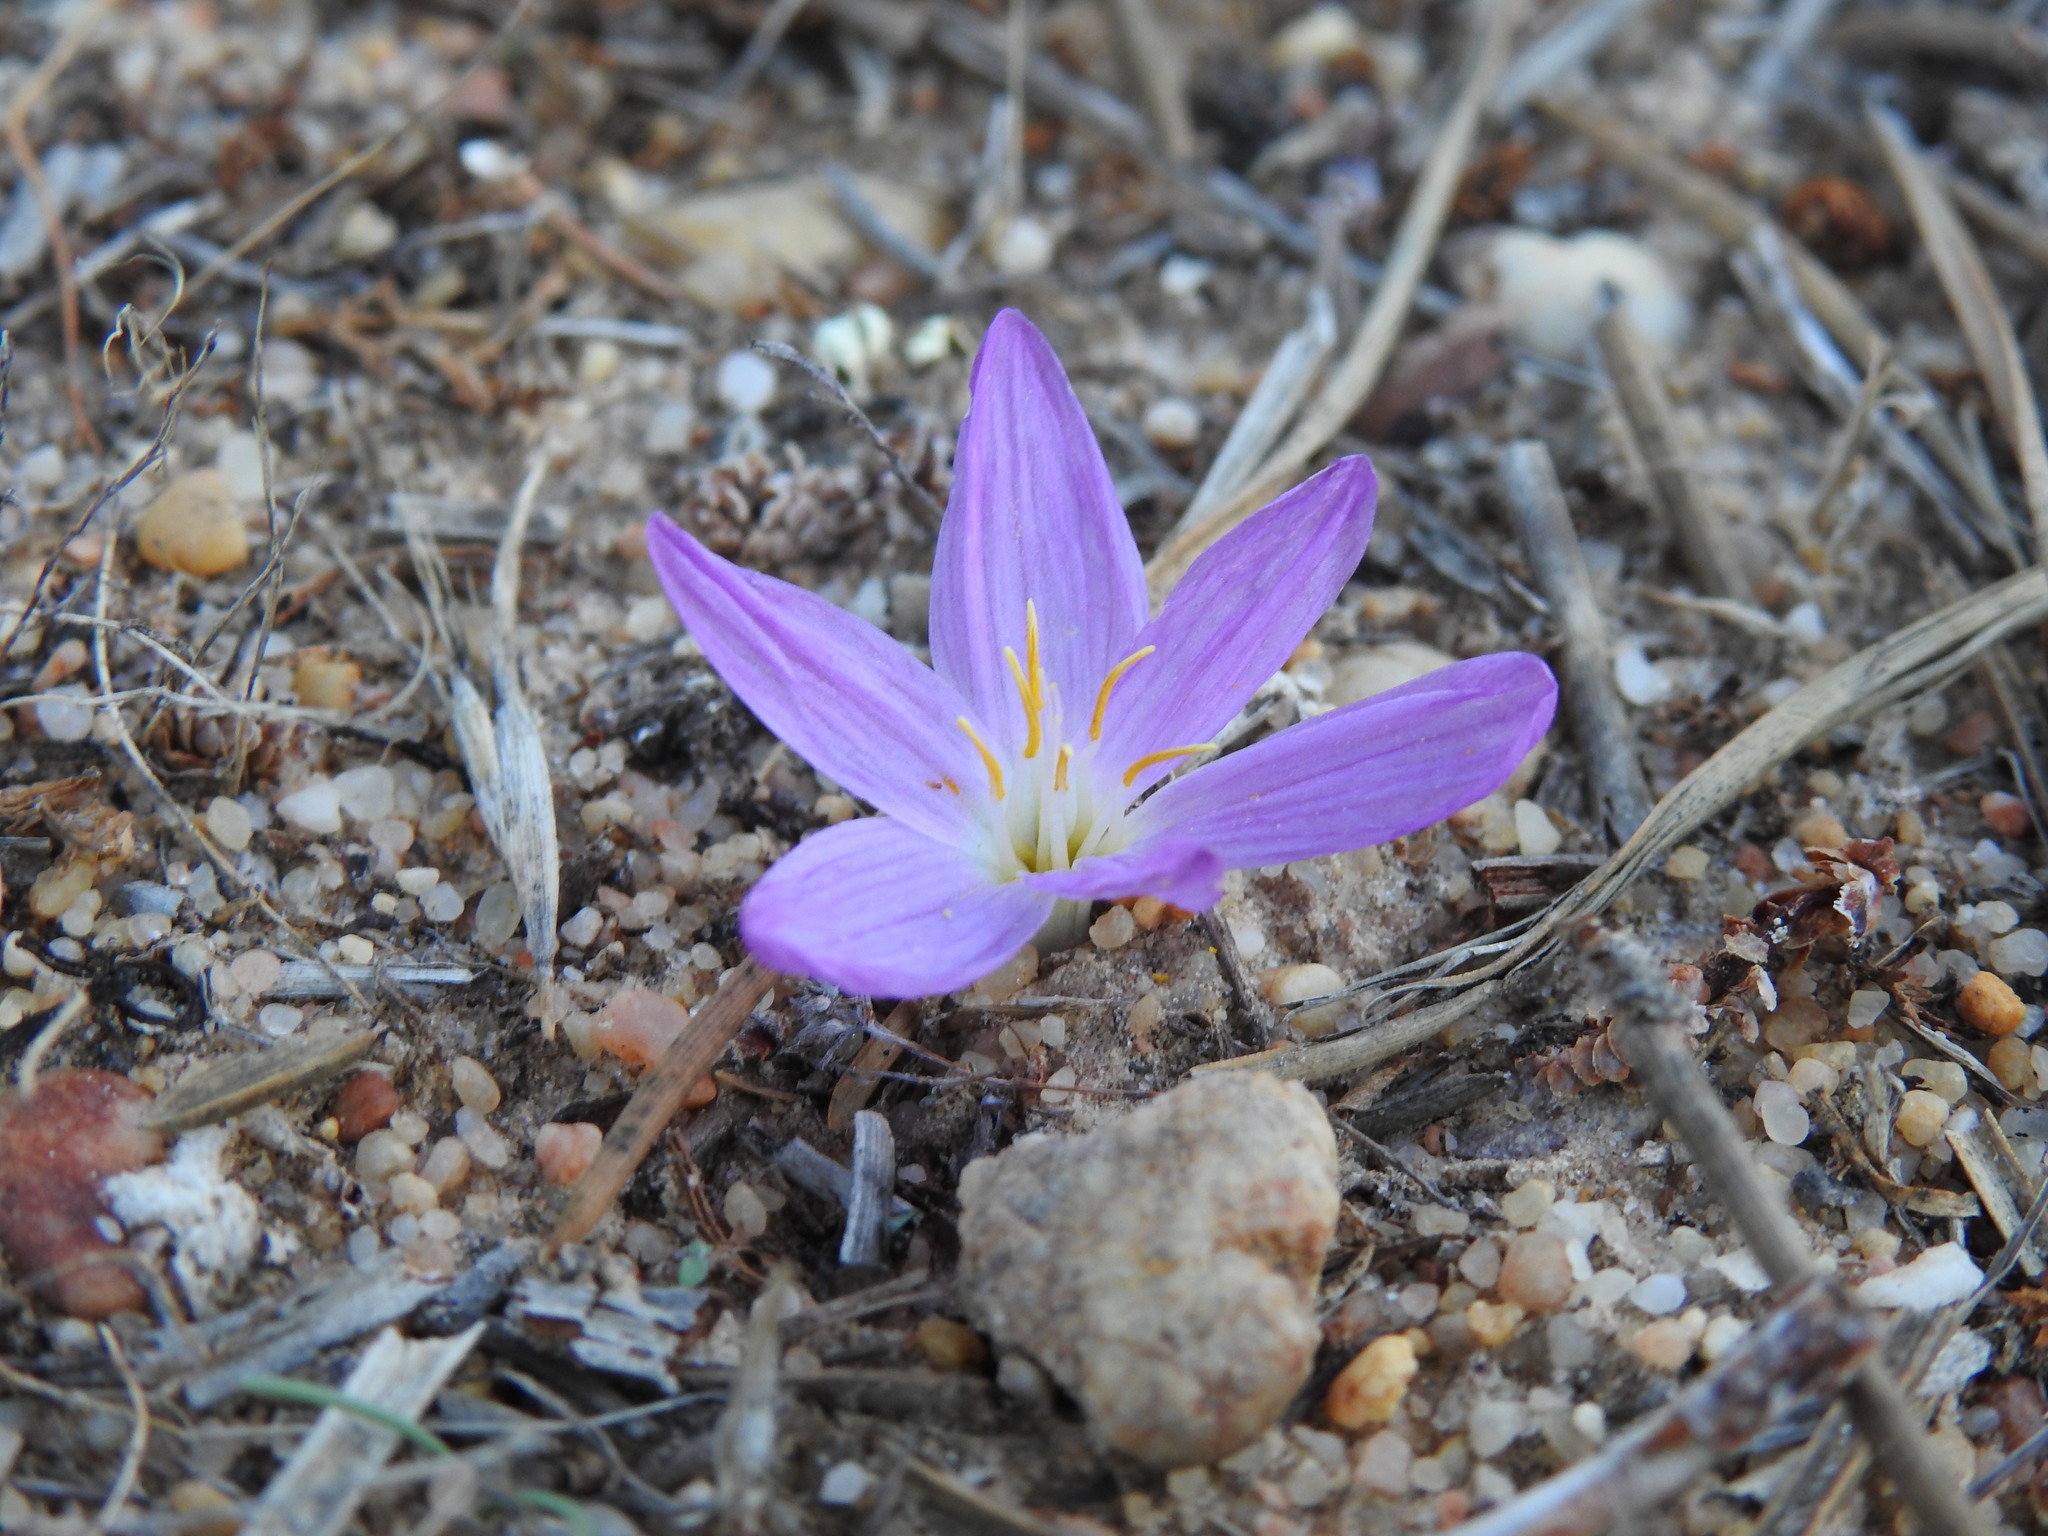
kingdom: Plantae
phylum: Tracheophyta
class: Liliopsida
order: Liliales
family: Colchicaceae
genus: Colchicum
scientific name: Colchicum filifolium
